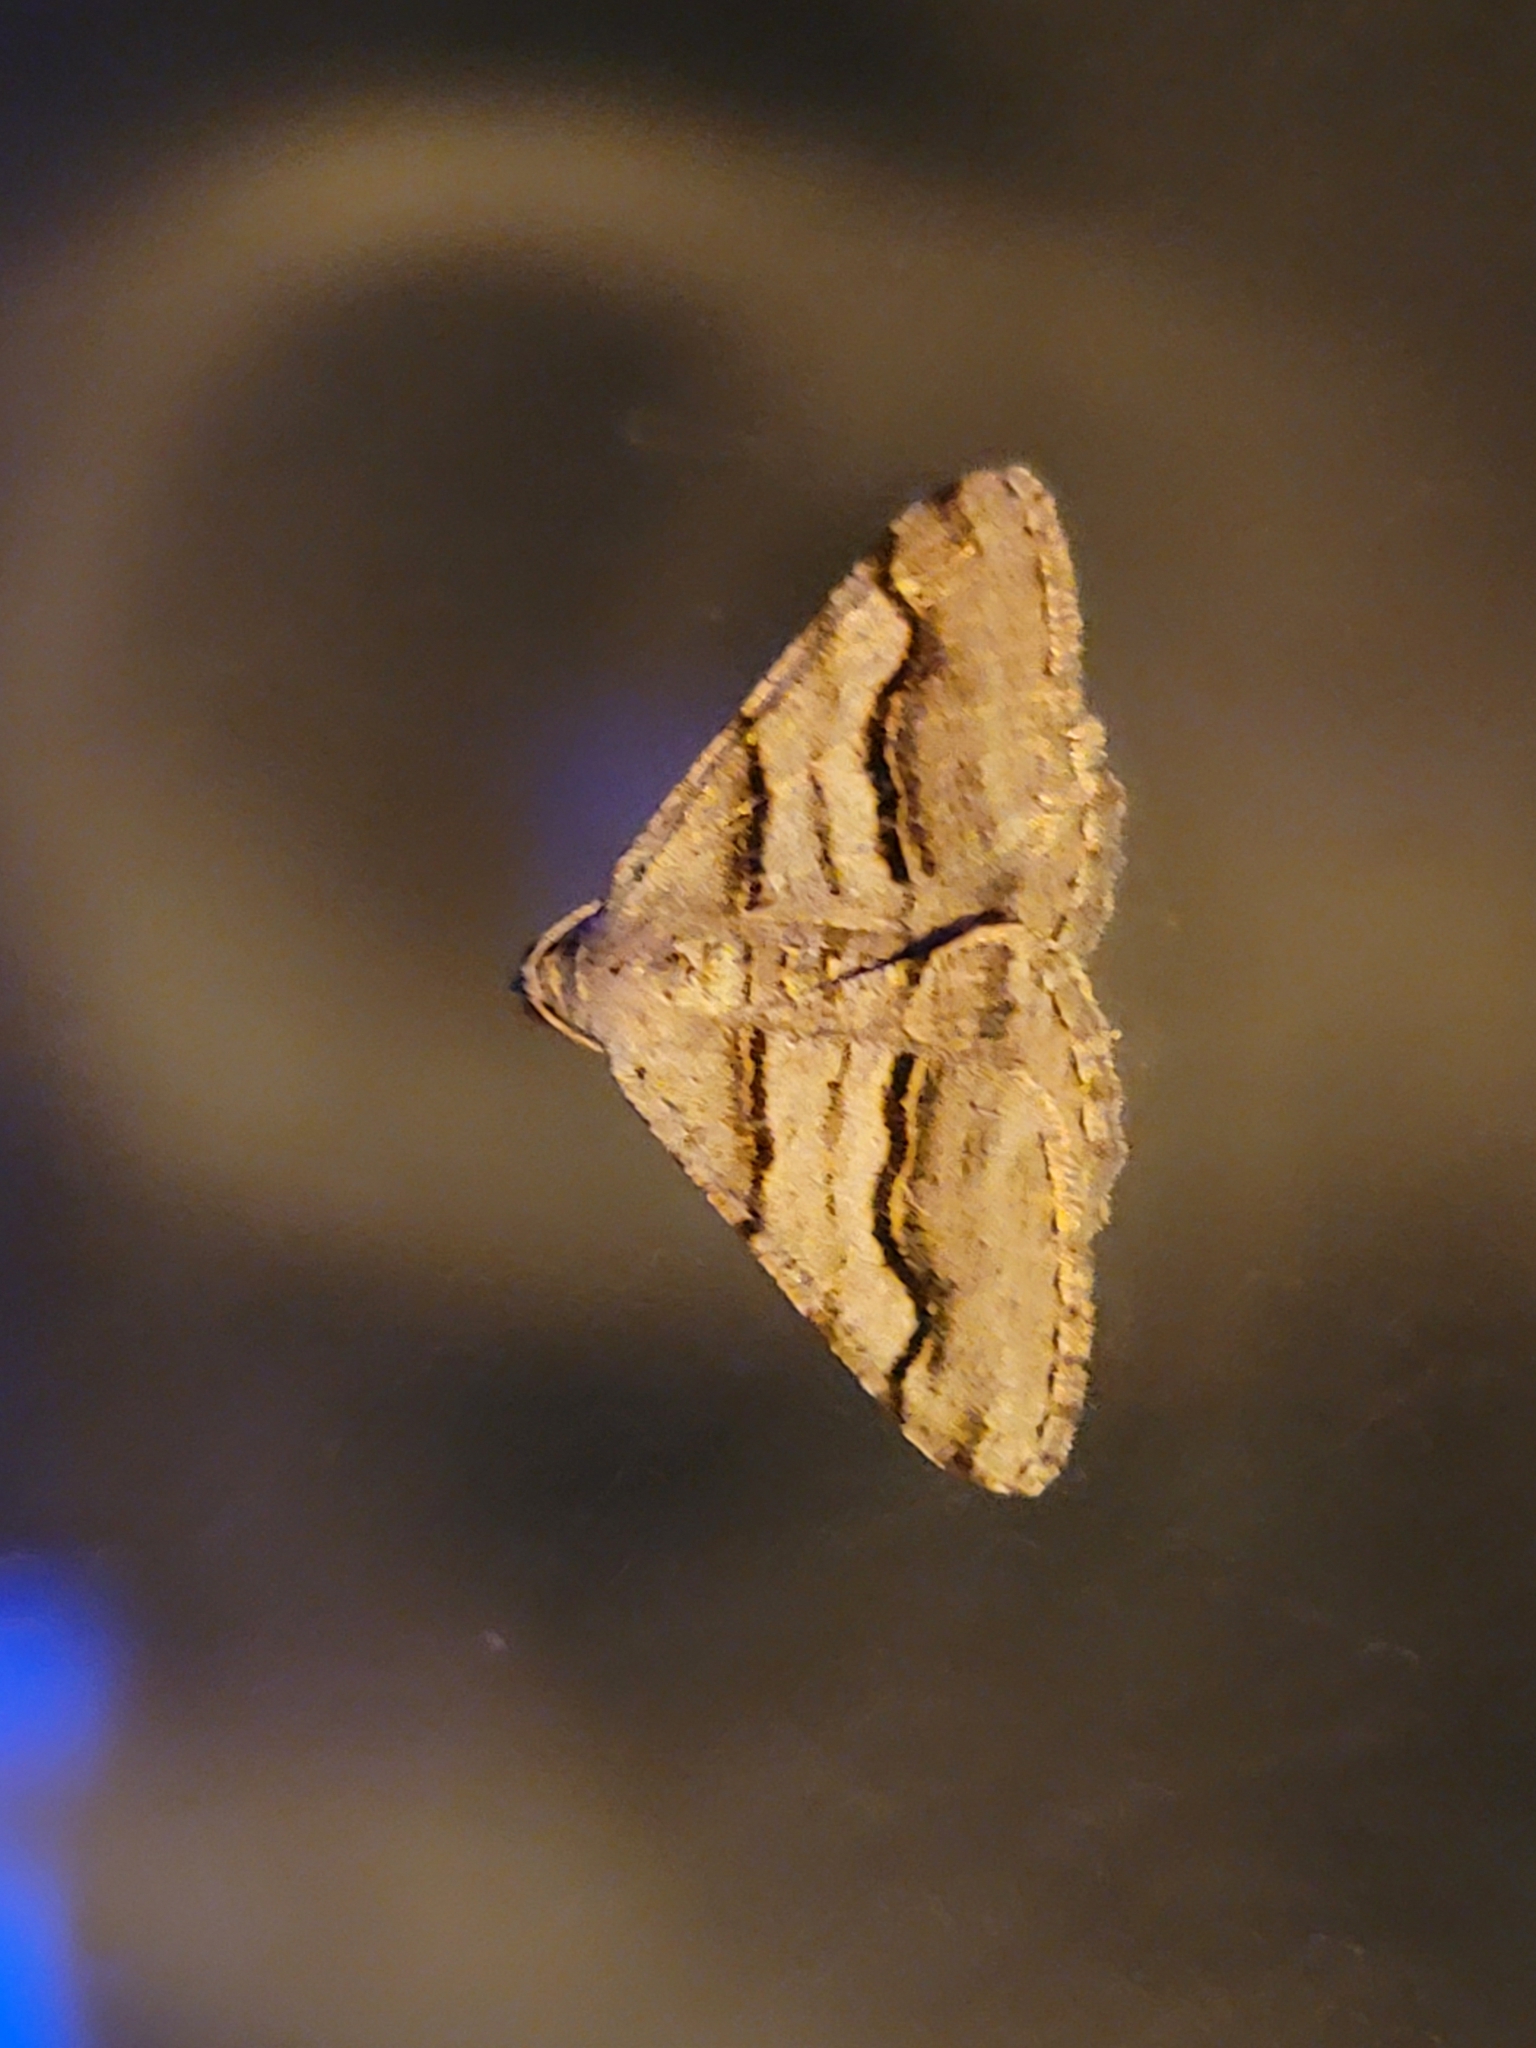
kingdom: Animalia
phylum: Arthropoda
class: Insecta
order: Lepidoptera
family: Geometridae
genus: Digrammia
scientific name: Digrammia continuata
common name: Curve-lined angle
